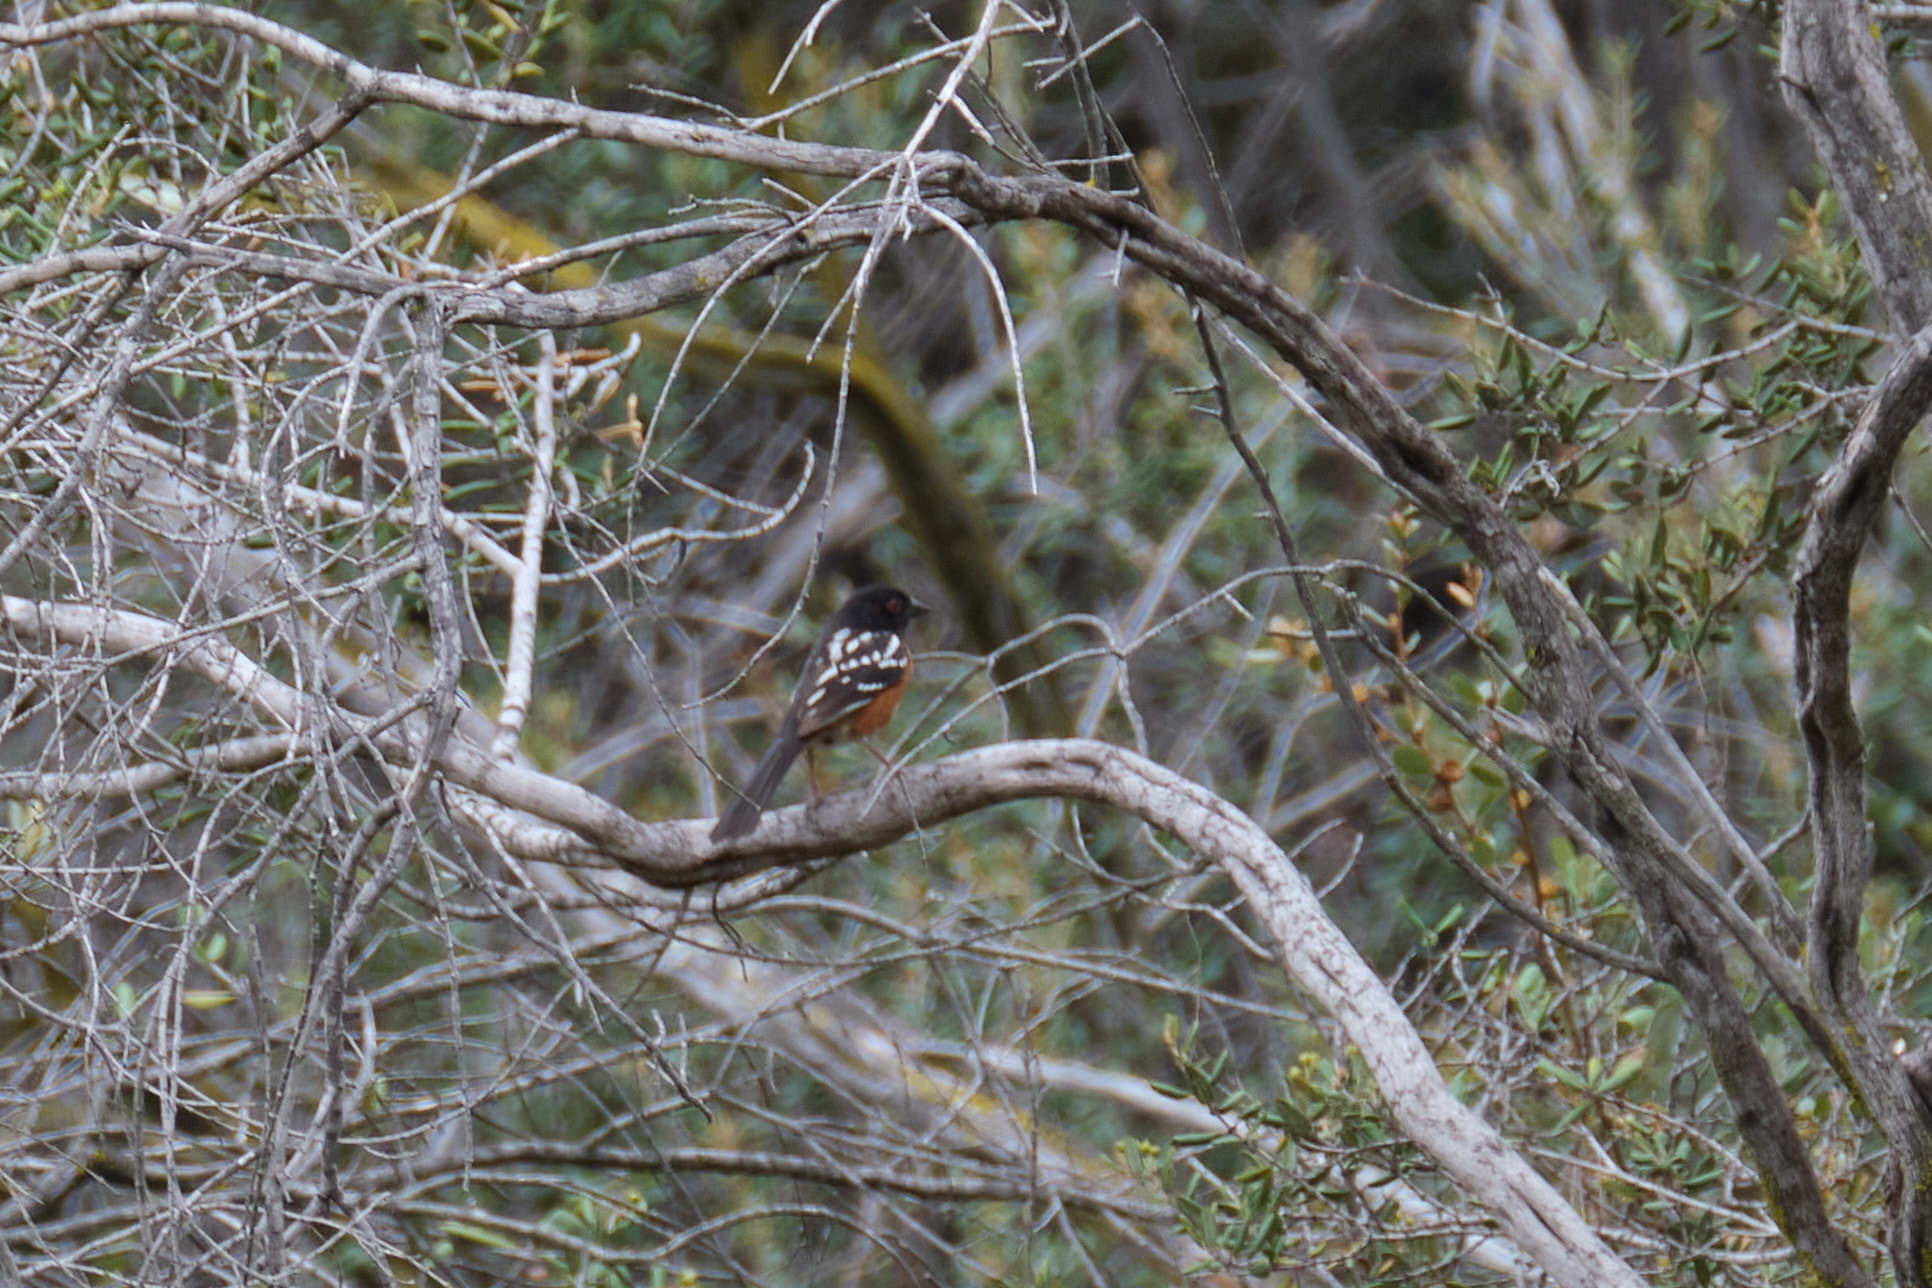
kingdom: Animalia
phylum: Chordata
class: Aves
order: Passeriformes
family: Passerellidae
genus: Pipilo
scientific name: Pipilo maculatus
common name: Spotted towhee
